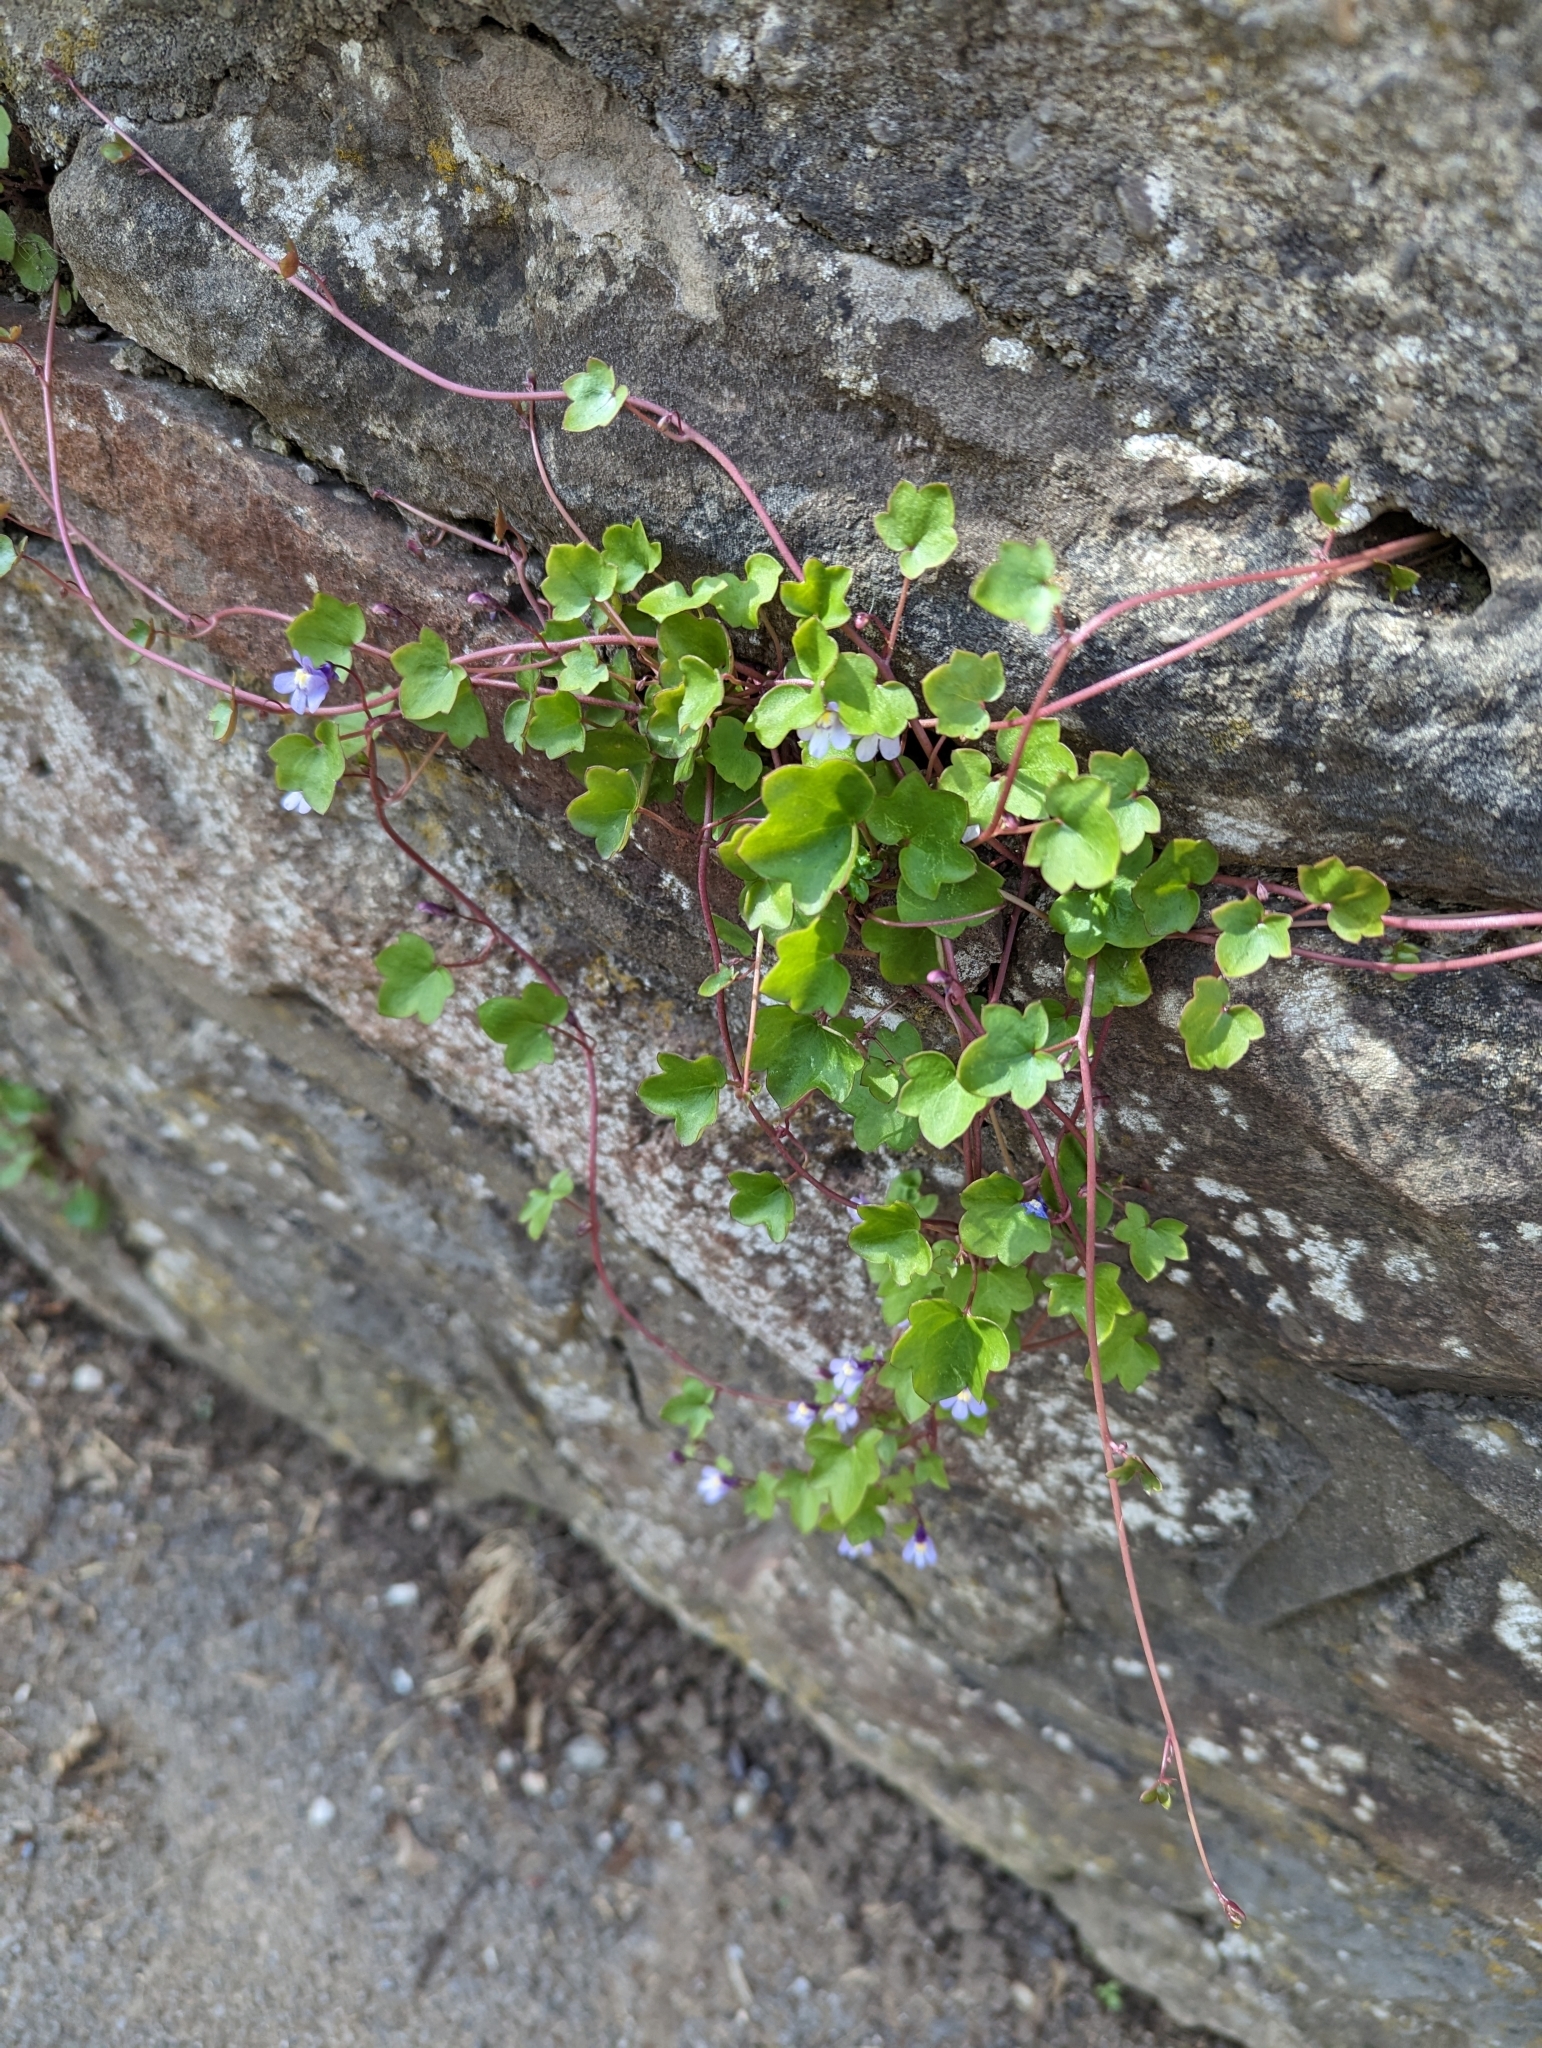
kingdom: Plantae
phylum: Tracheophyta
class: Magnoliopsida
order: Lamiales
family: Plantaginaceae
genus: Cymbalaria
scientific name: Cymbalaria muralis
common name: Ivy-leaved toadflax
